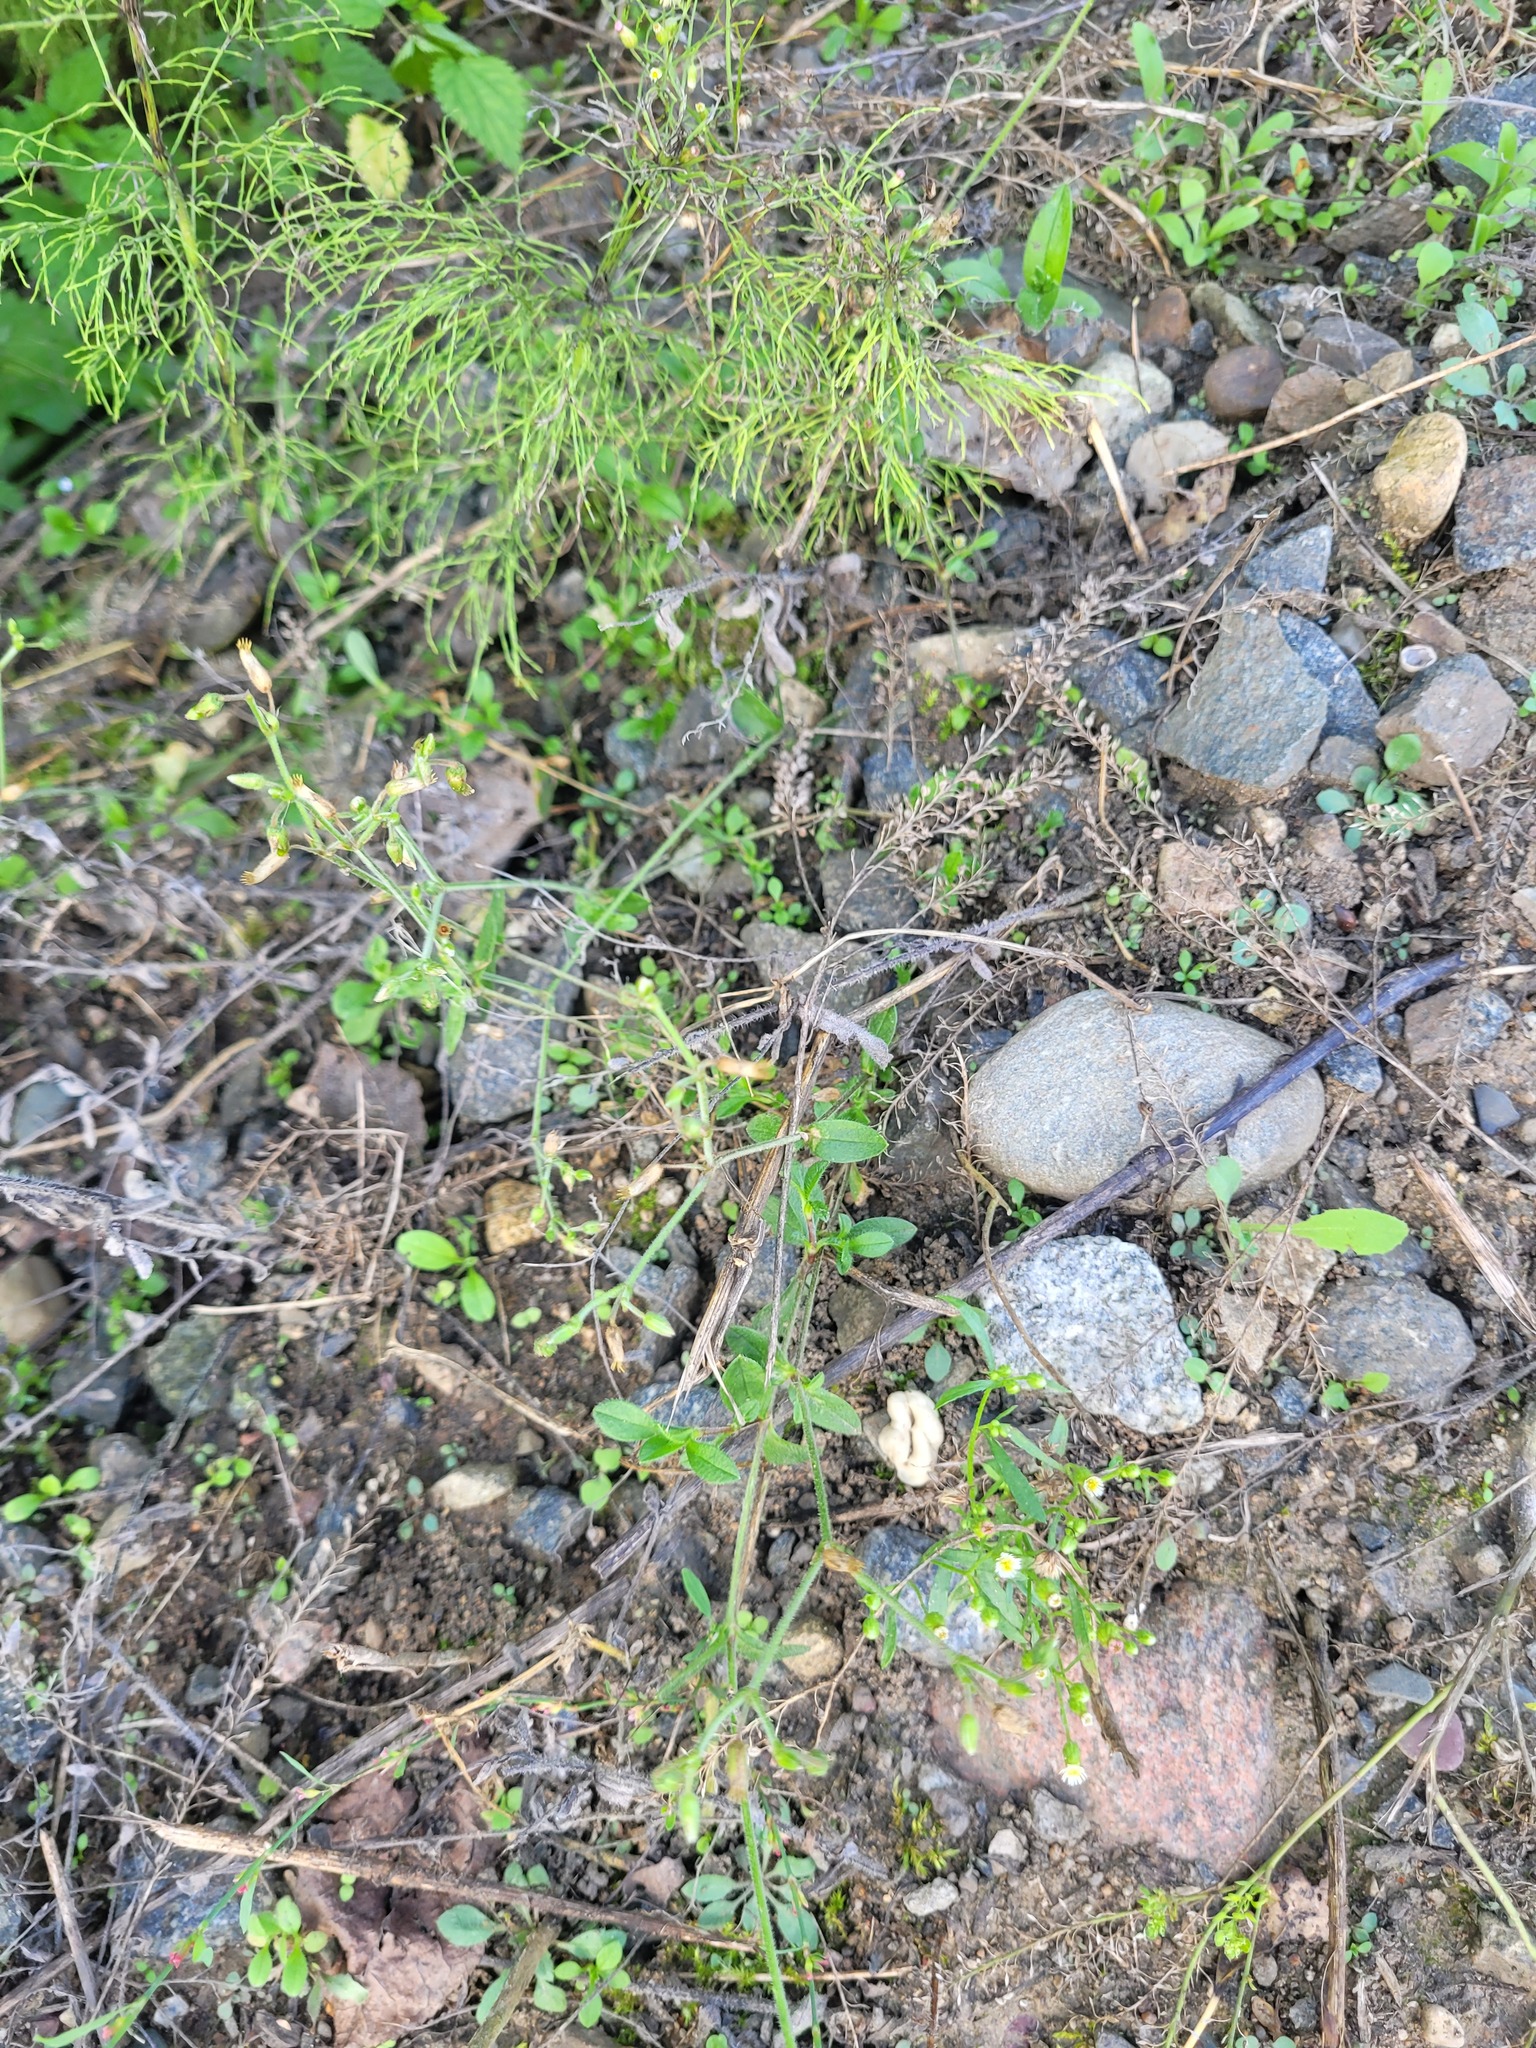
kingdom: Plantae
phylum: Tracheophyta
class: Magnoliopsida
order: Caryophyllales
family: Caryophyllaceae
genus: Cerastium
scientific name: Cerastium holosteoides
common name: Big chickweed
